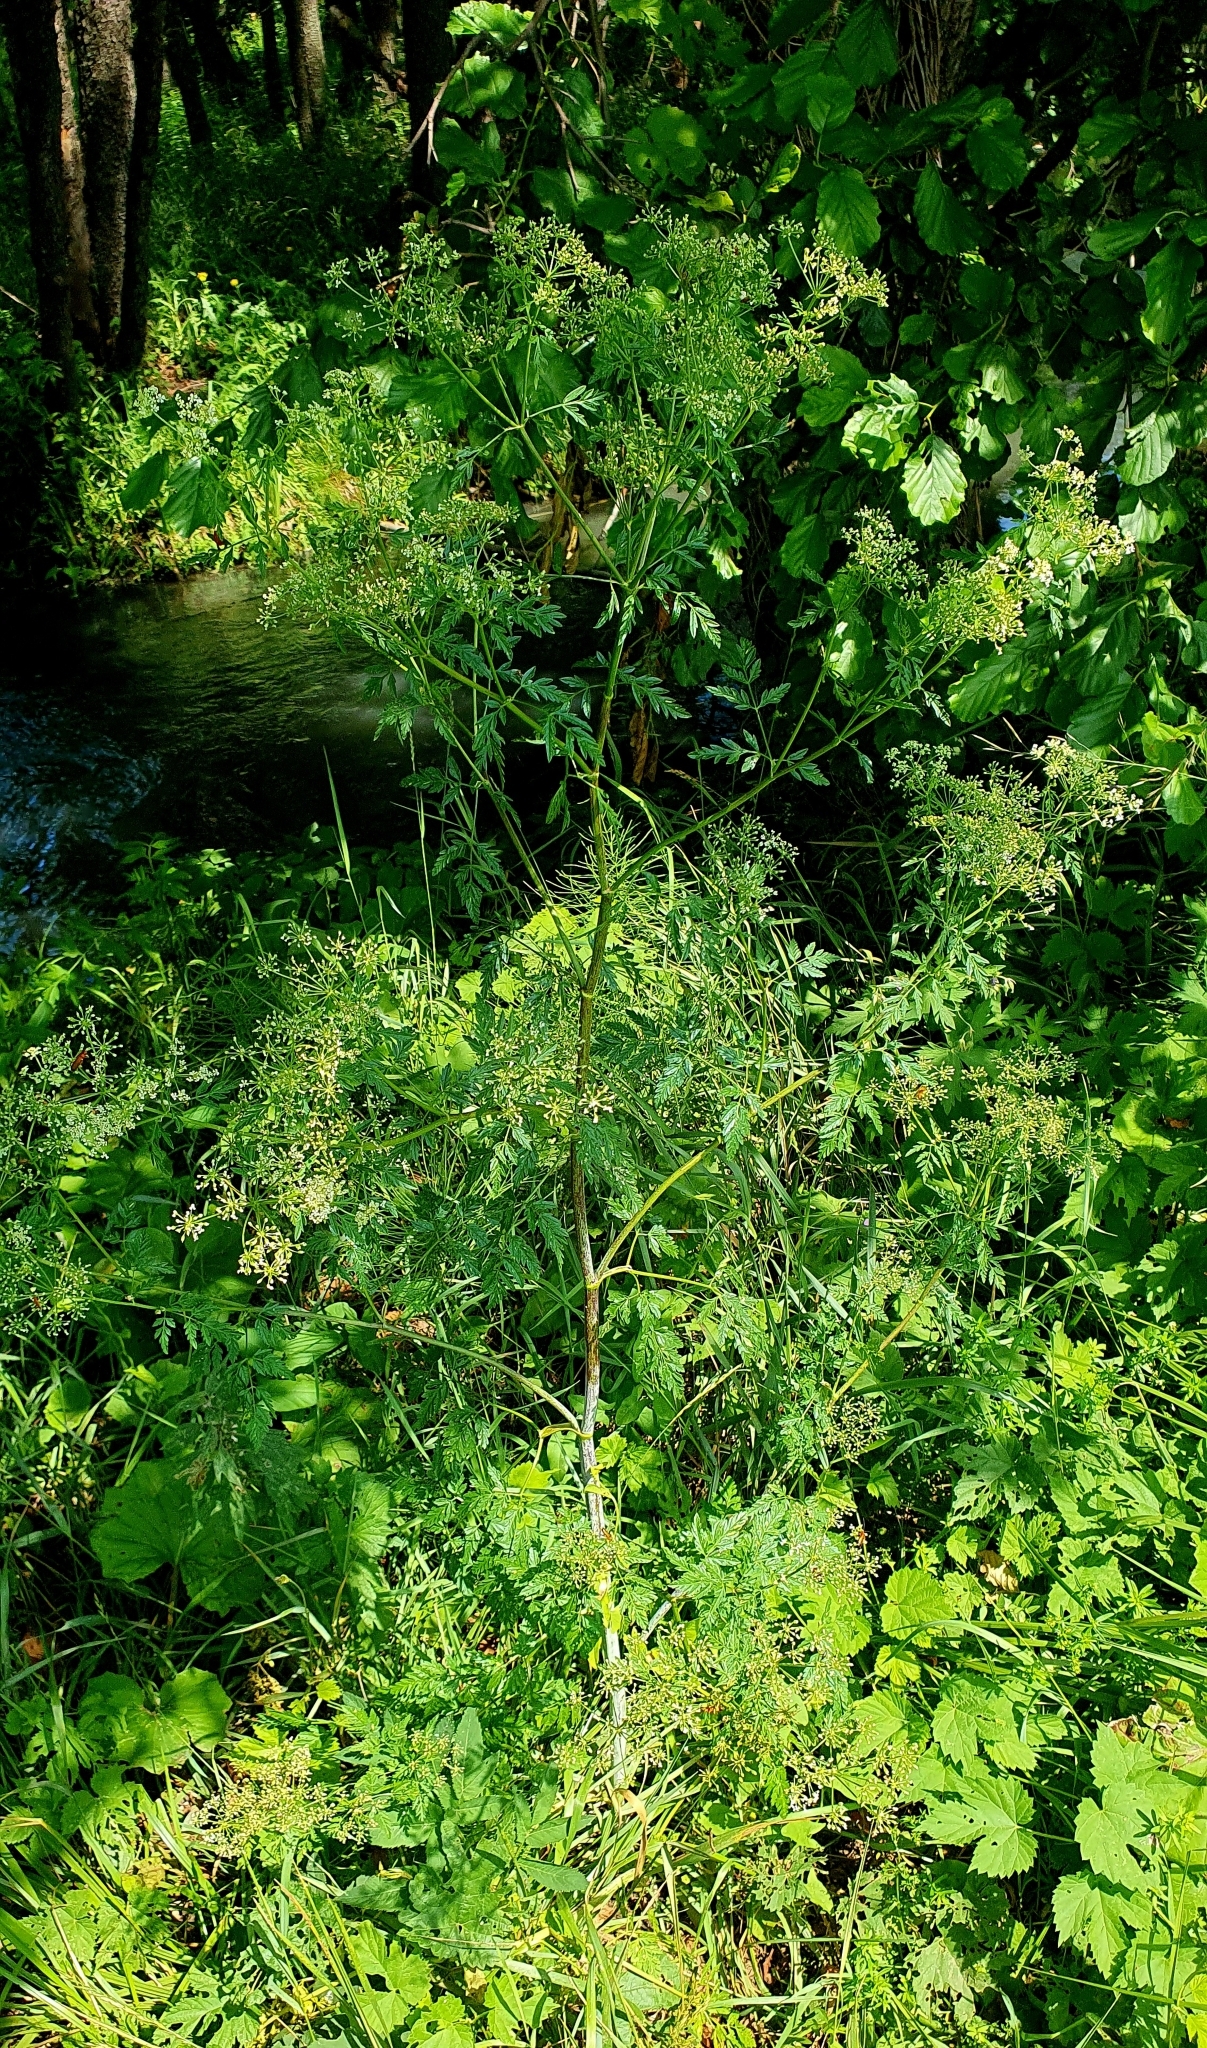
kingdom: Plantae
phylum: Tracheophyta
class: Magnoliopsida
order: Apiales
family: Apiaceae
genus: Conium
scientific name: Conium maculatum
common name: Hemlock
